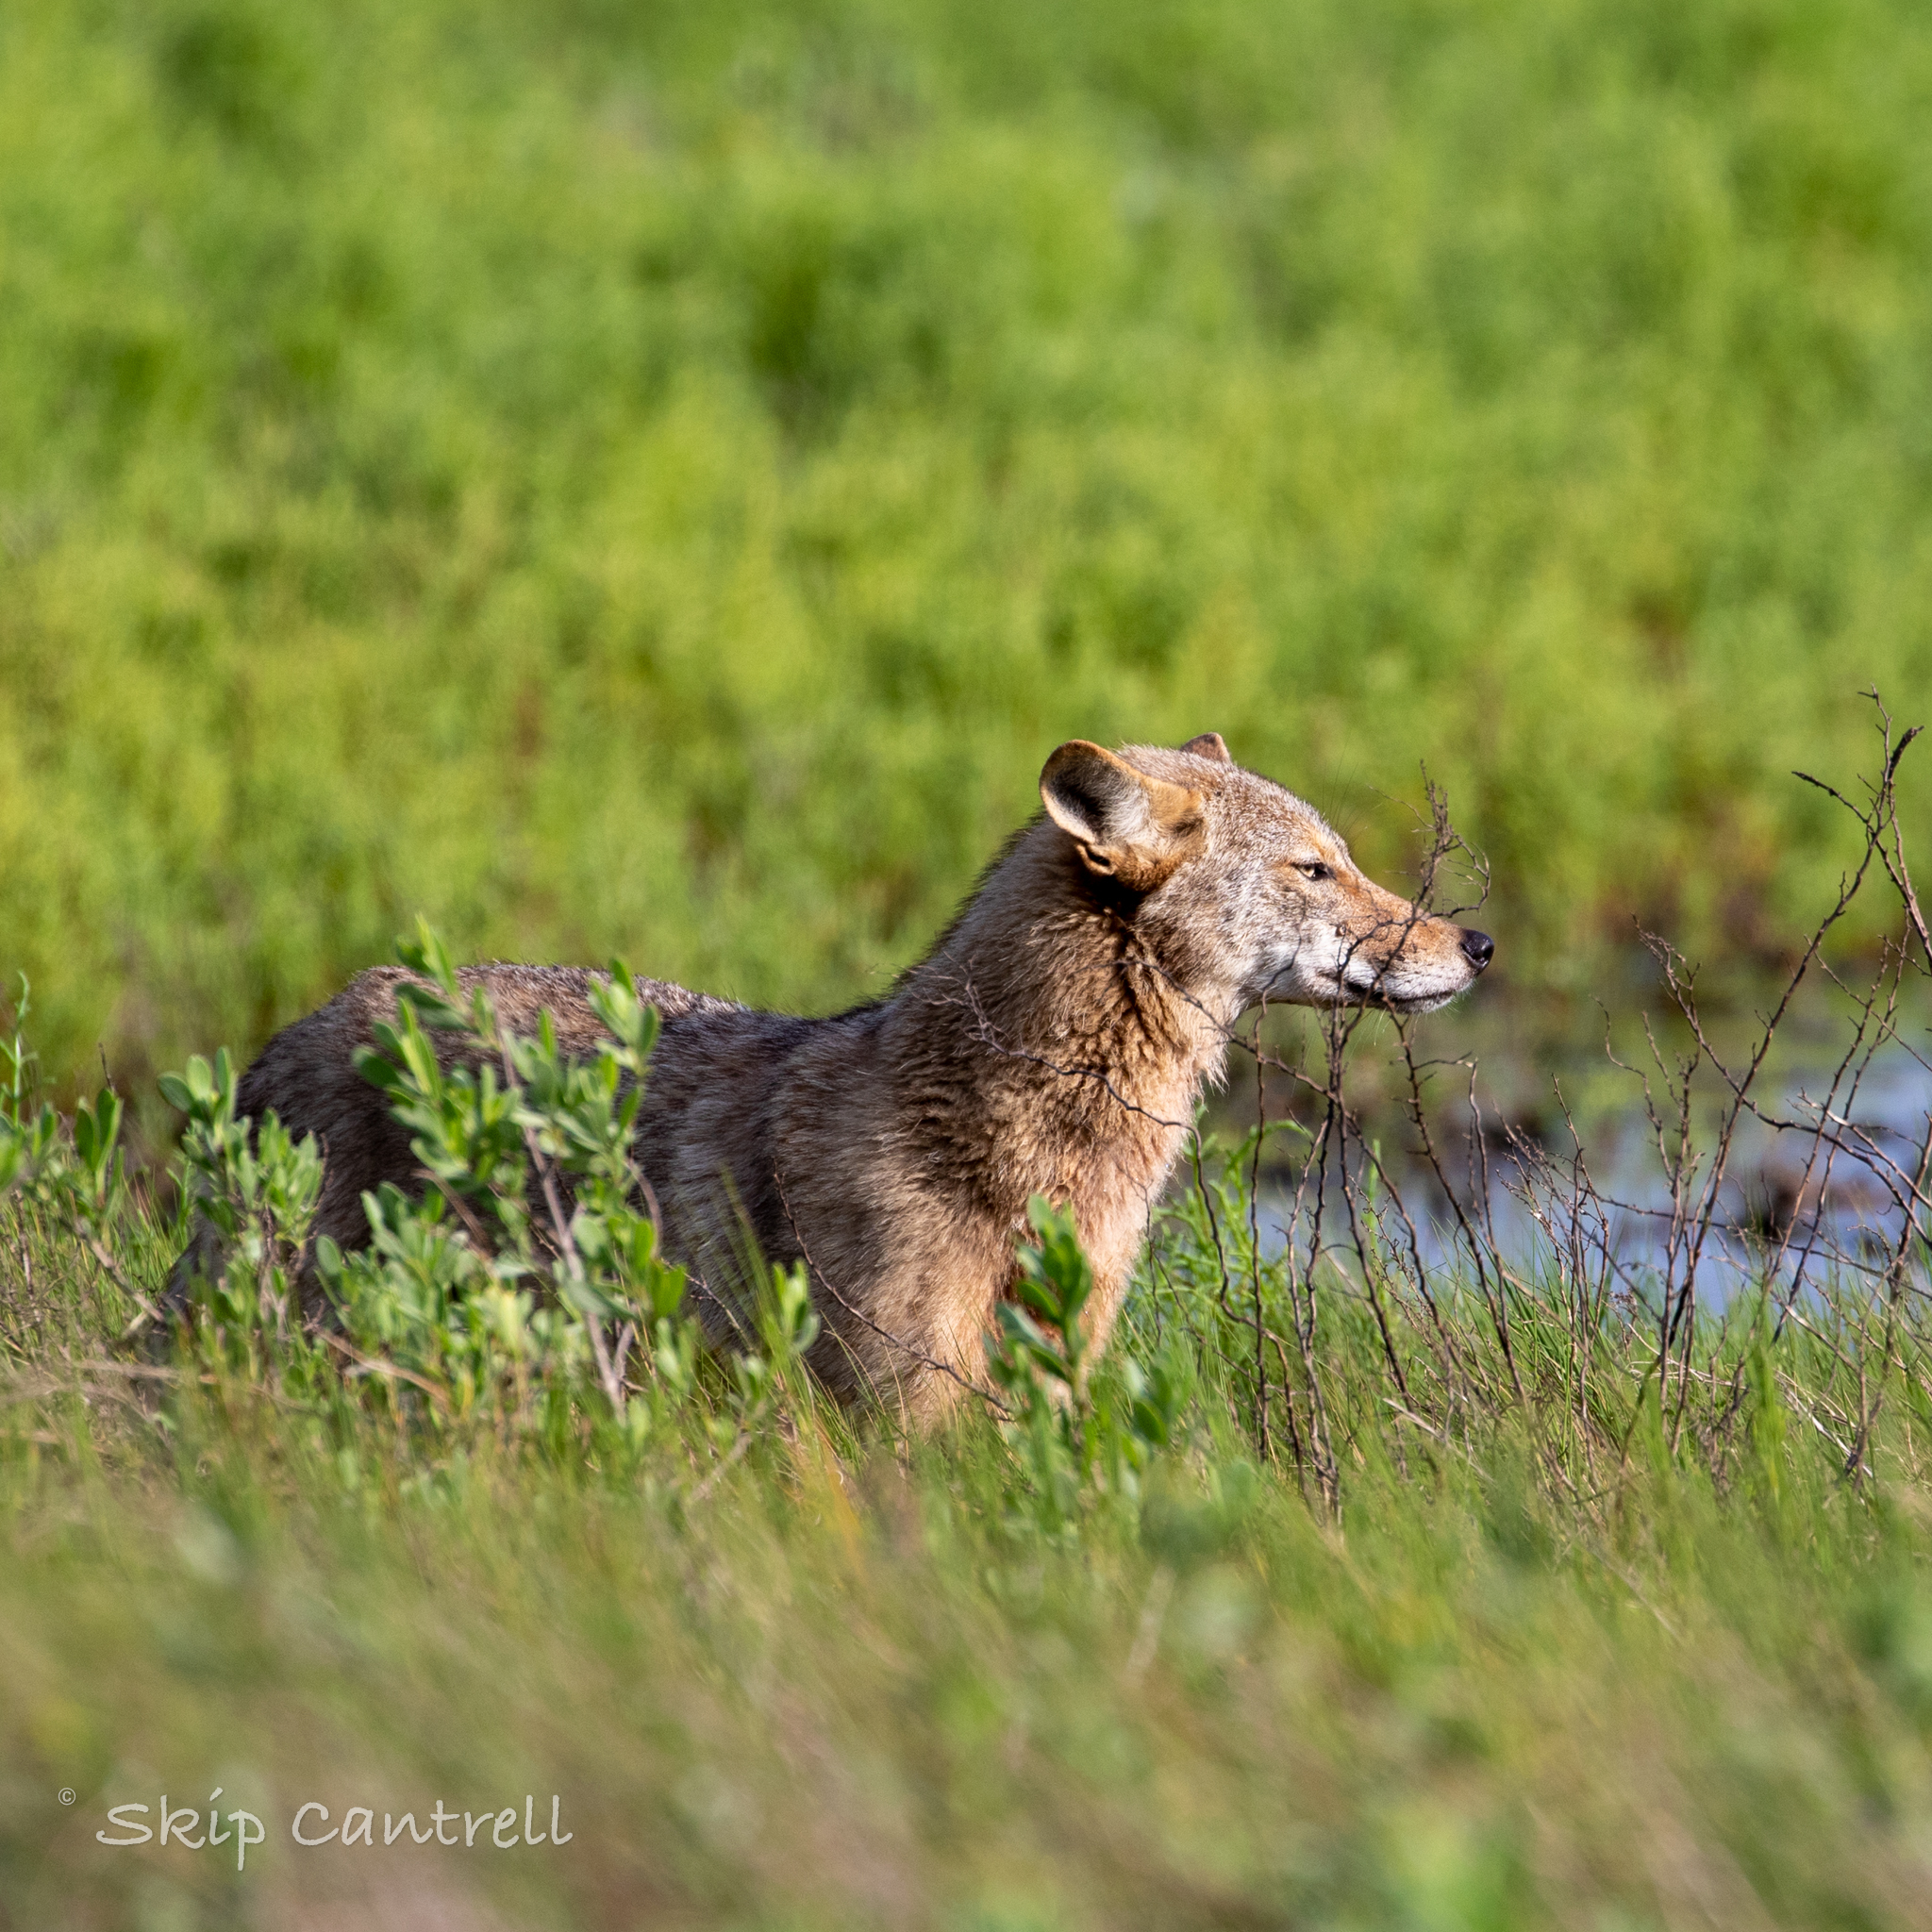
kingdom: Animalia
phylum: Chordata
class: Mammalia
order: Carnivora
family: Canidae
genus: Canis
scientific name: Canis latrans
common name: Coyote
